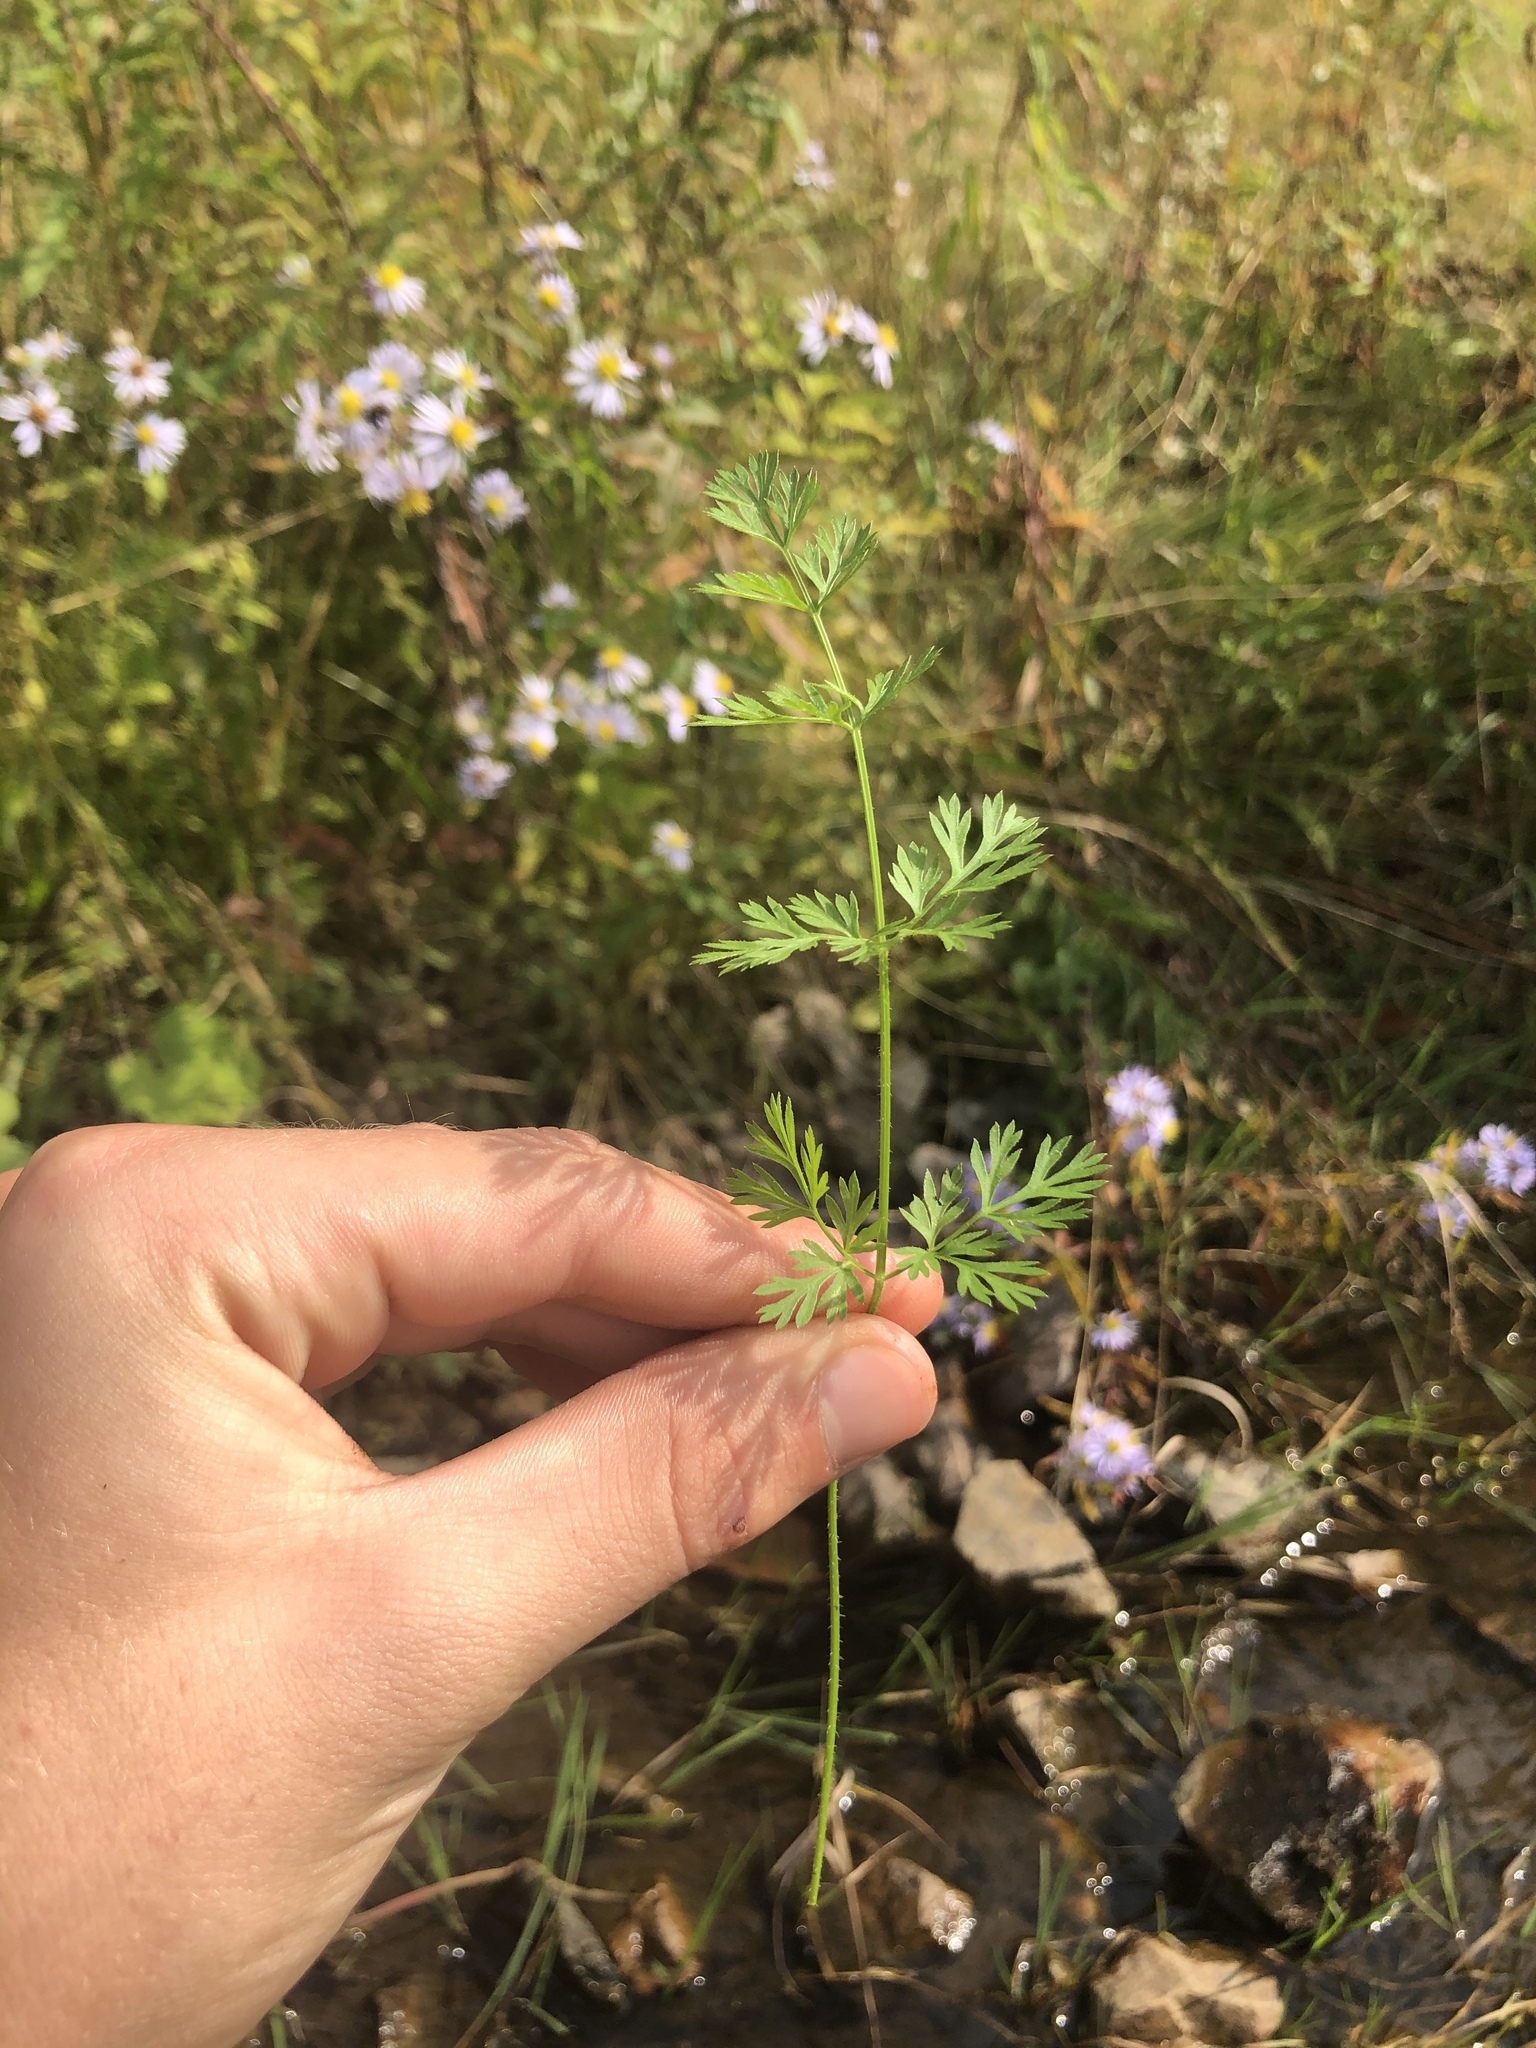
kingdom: Plantae
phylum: Tracheophyta
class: Magnoliopsida
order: Apiales
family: Apiaceae
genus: Daucus
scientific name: Daucus carota
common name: Wild carrot
